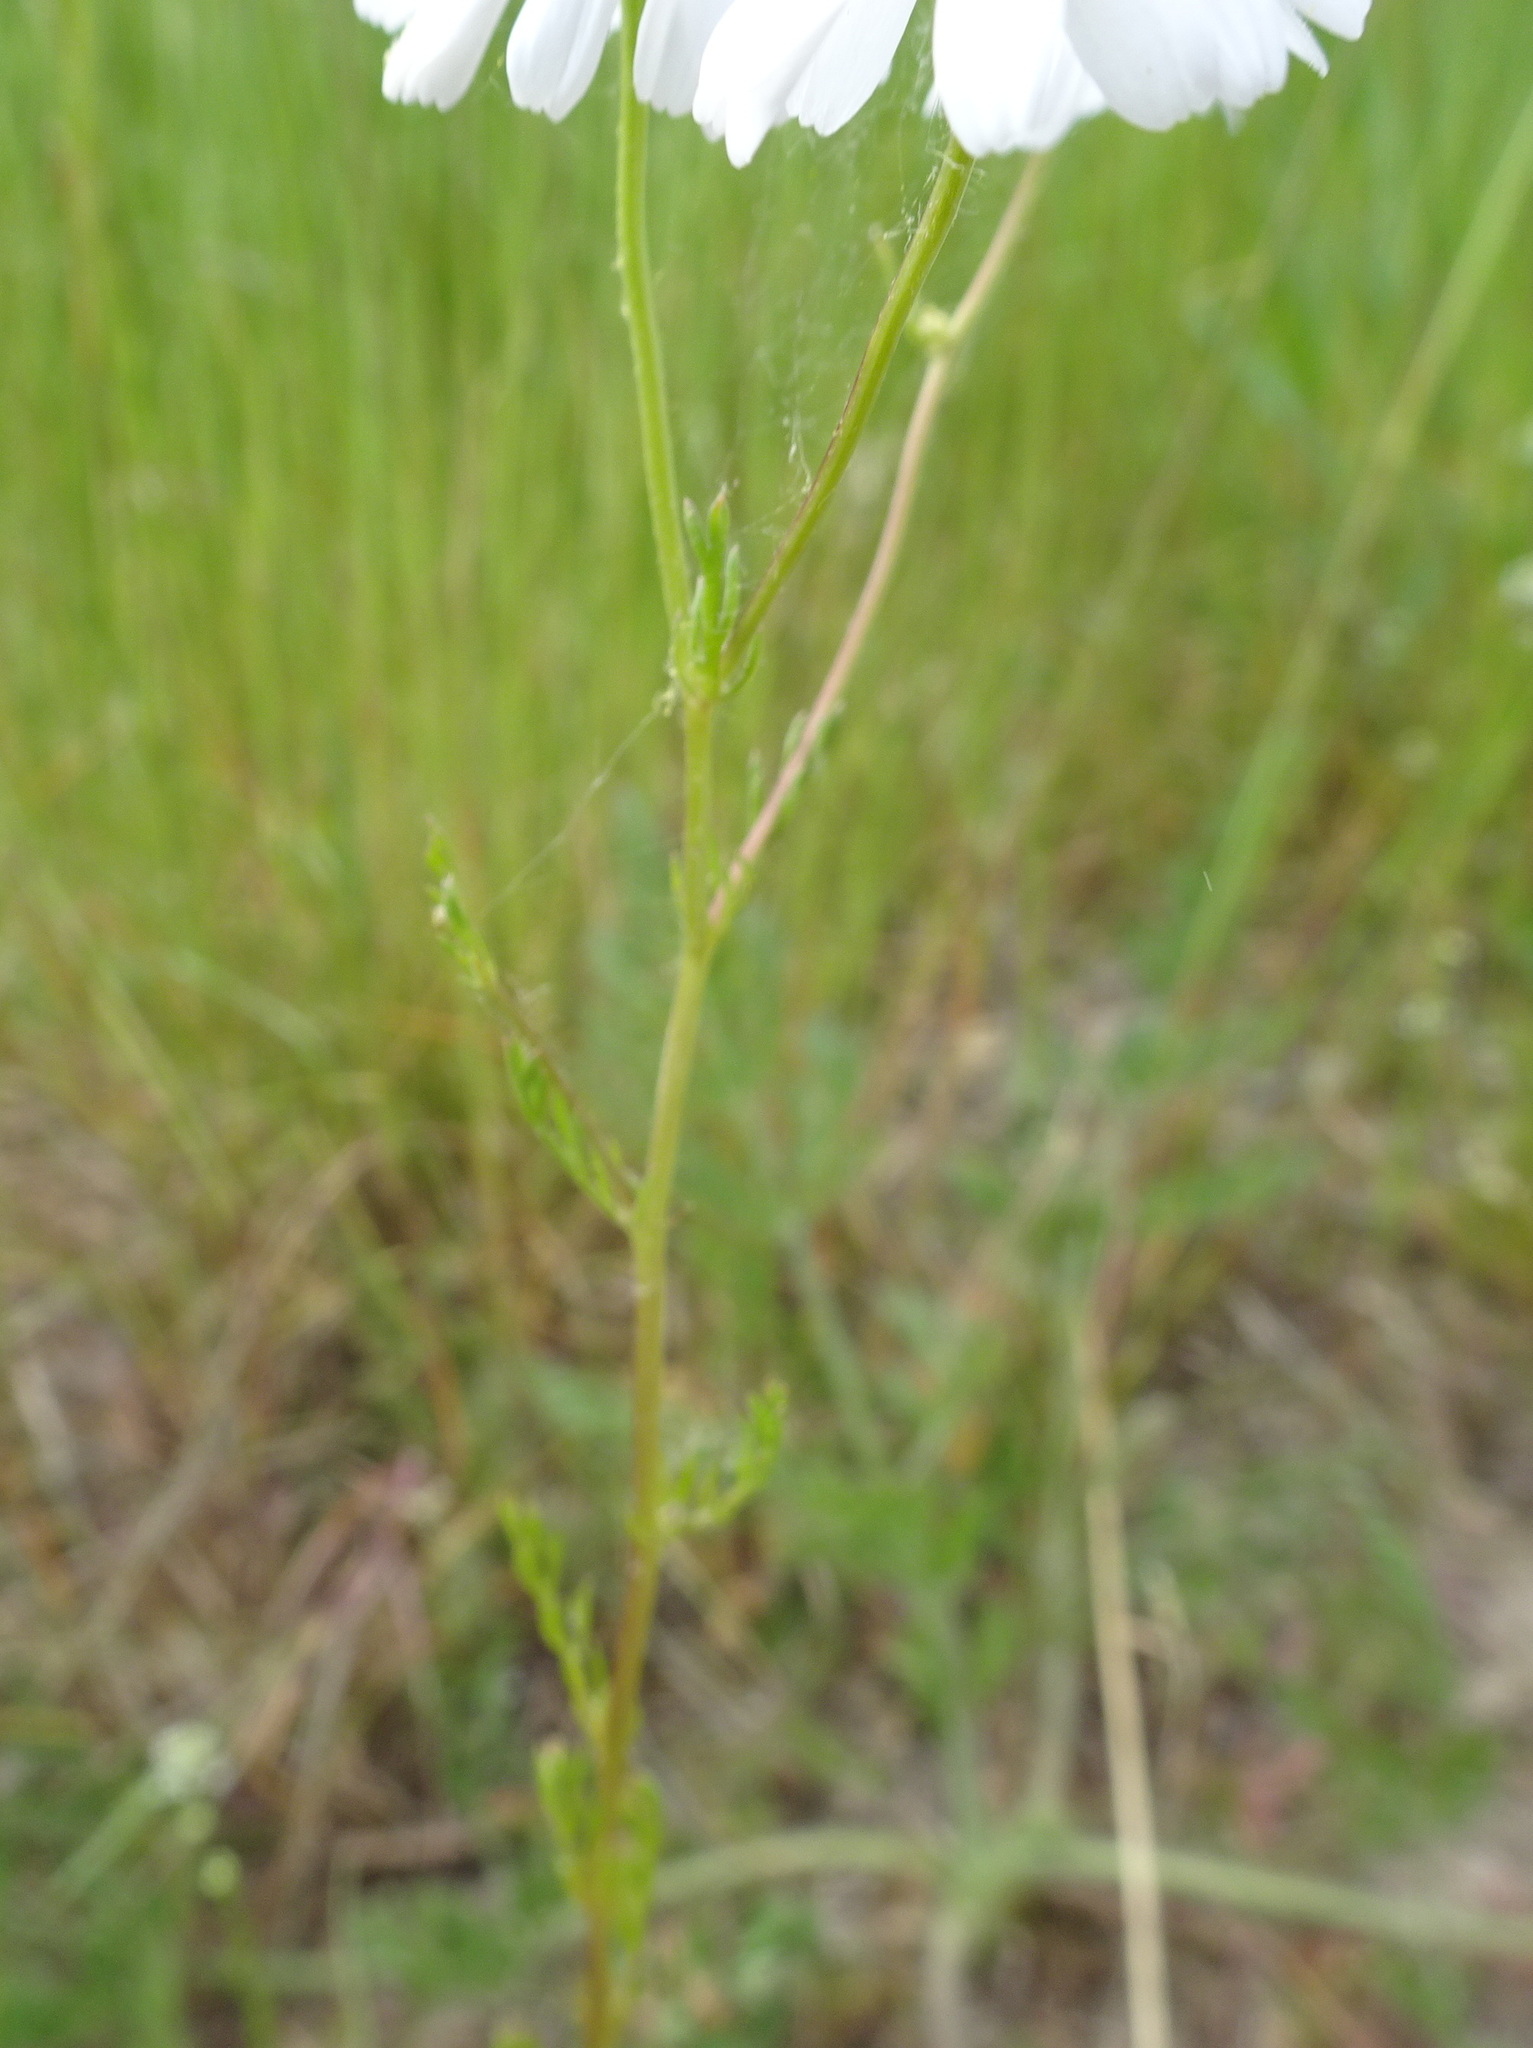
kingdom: Plantae
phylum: Tracheophyta
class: Magnoliopsida
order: Asterales
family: Asteraceae
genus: Matricaria
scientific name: Matricaria chamomilla
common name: Scented mayweed
